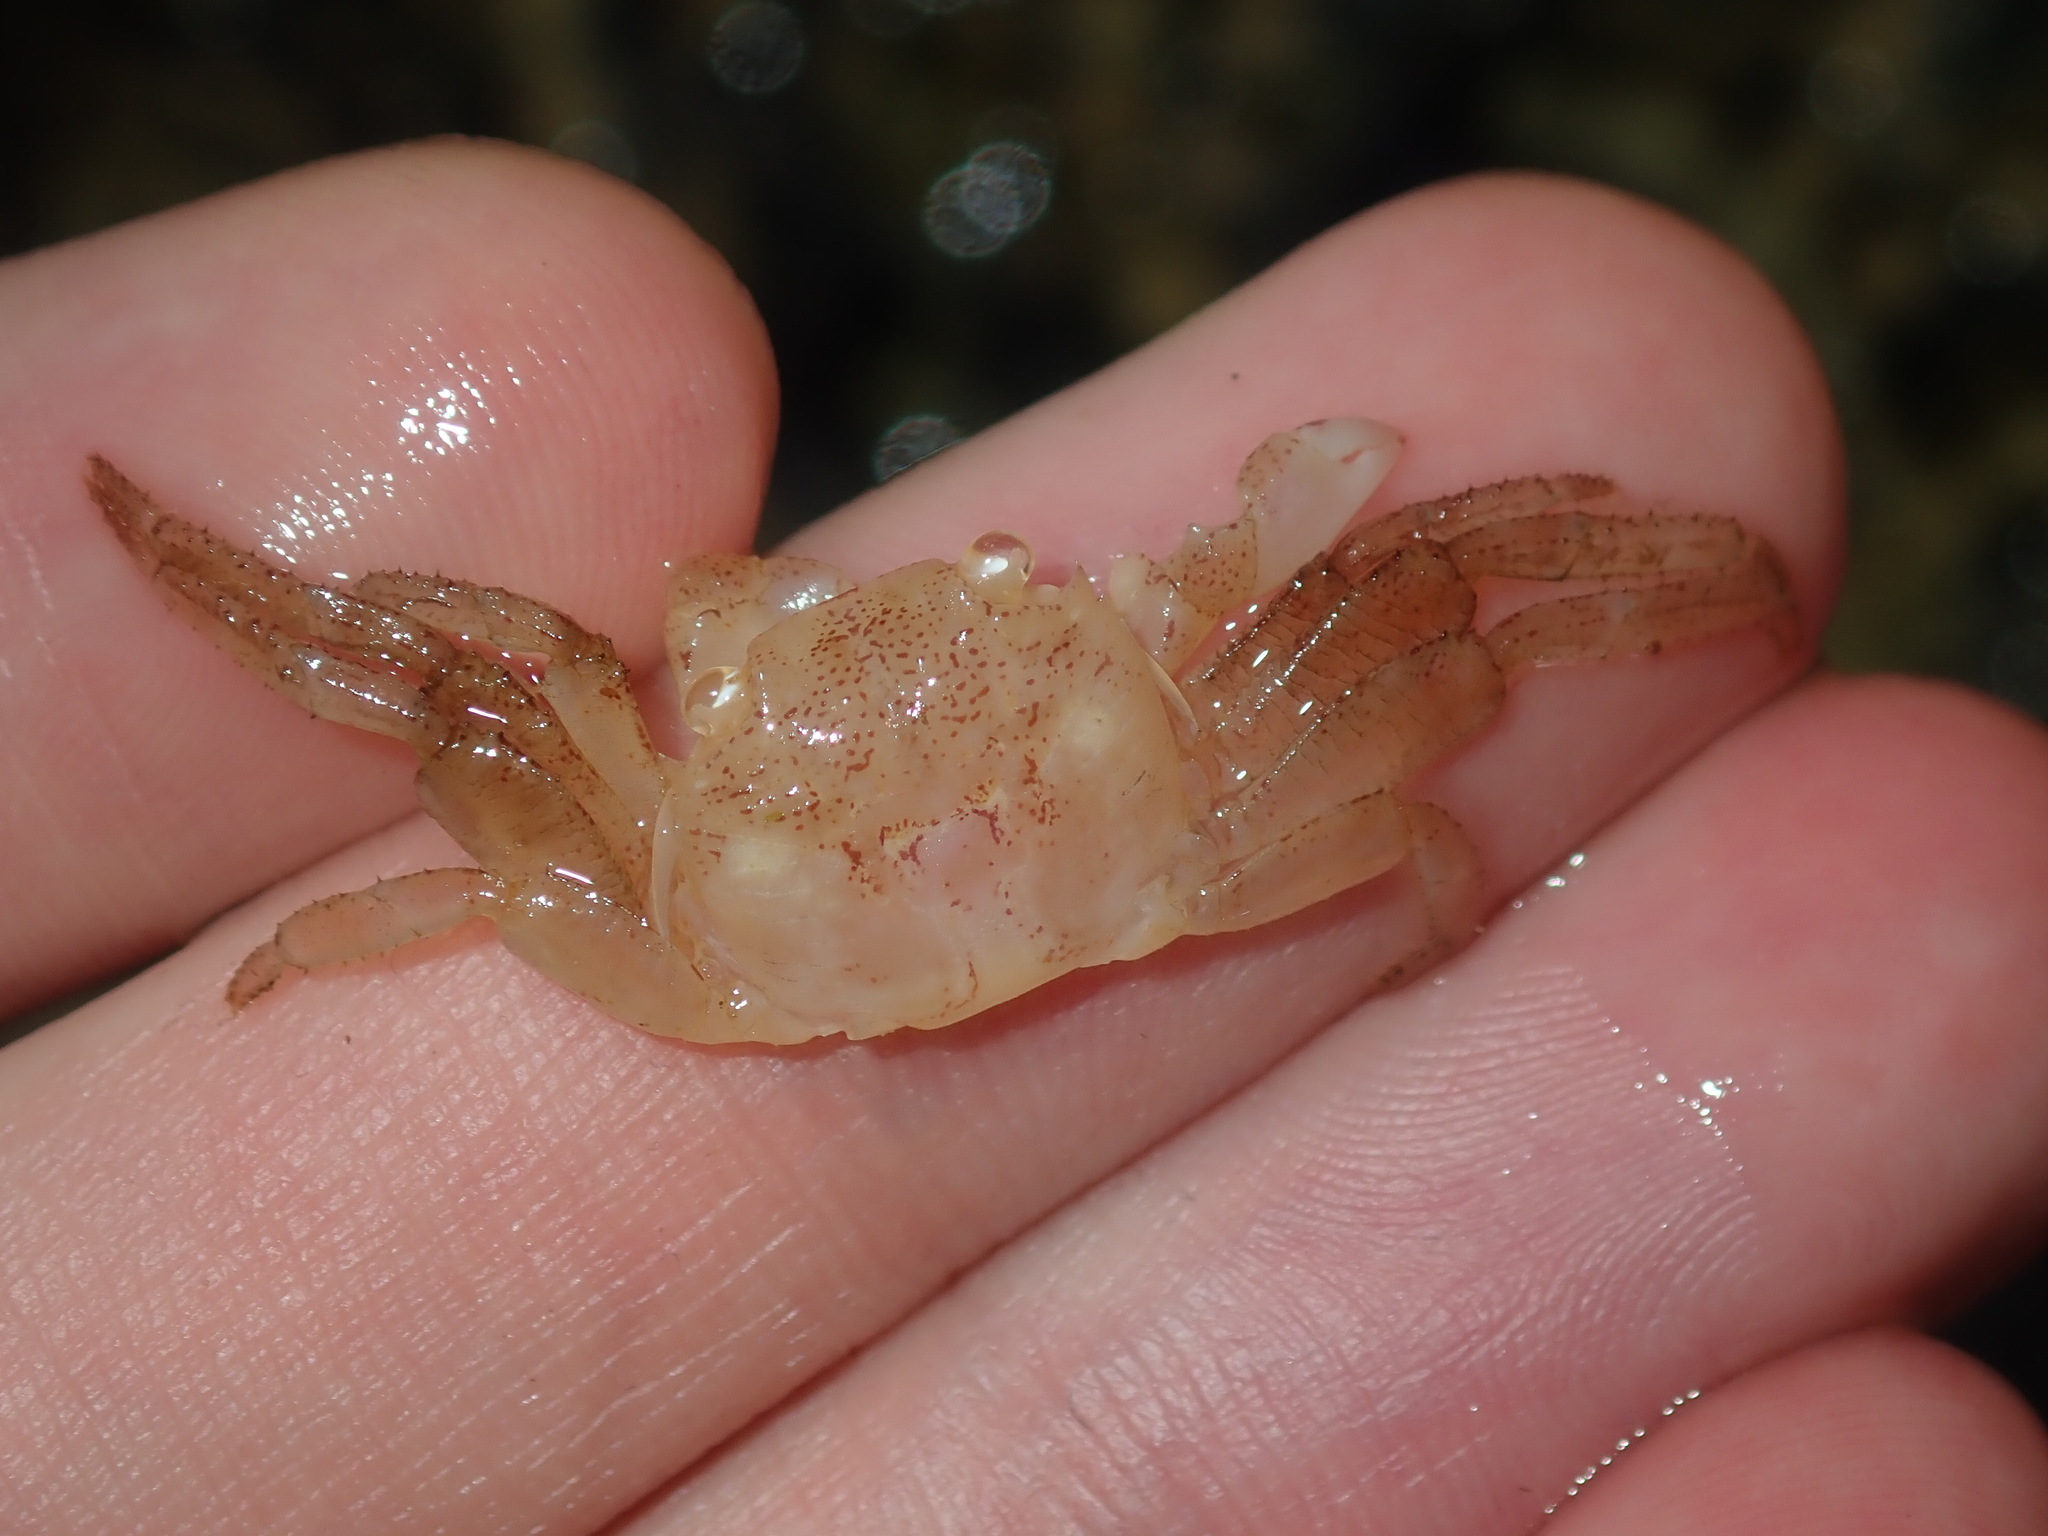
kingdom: Animalia
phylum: Arthropoda
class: Malacostraca
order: Decapoda
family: Grapsidae
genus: Leptograpsus
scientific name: Leptograpsus variegatus
